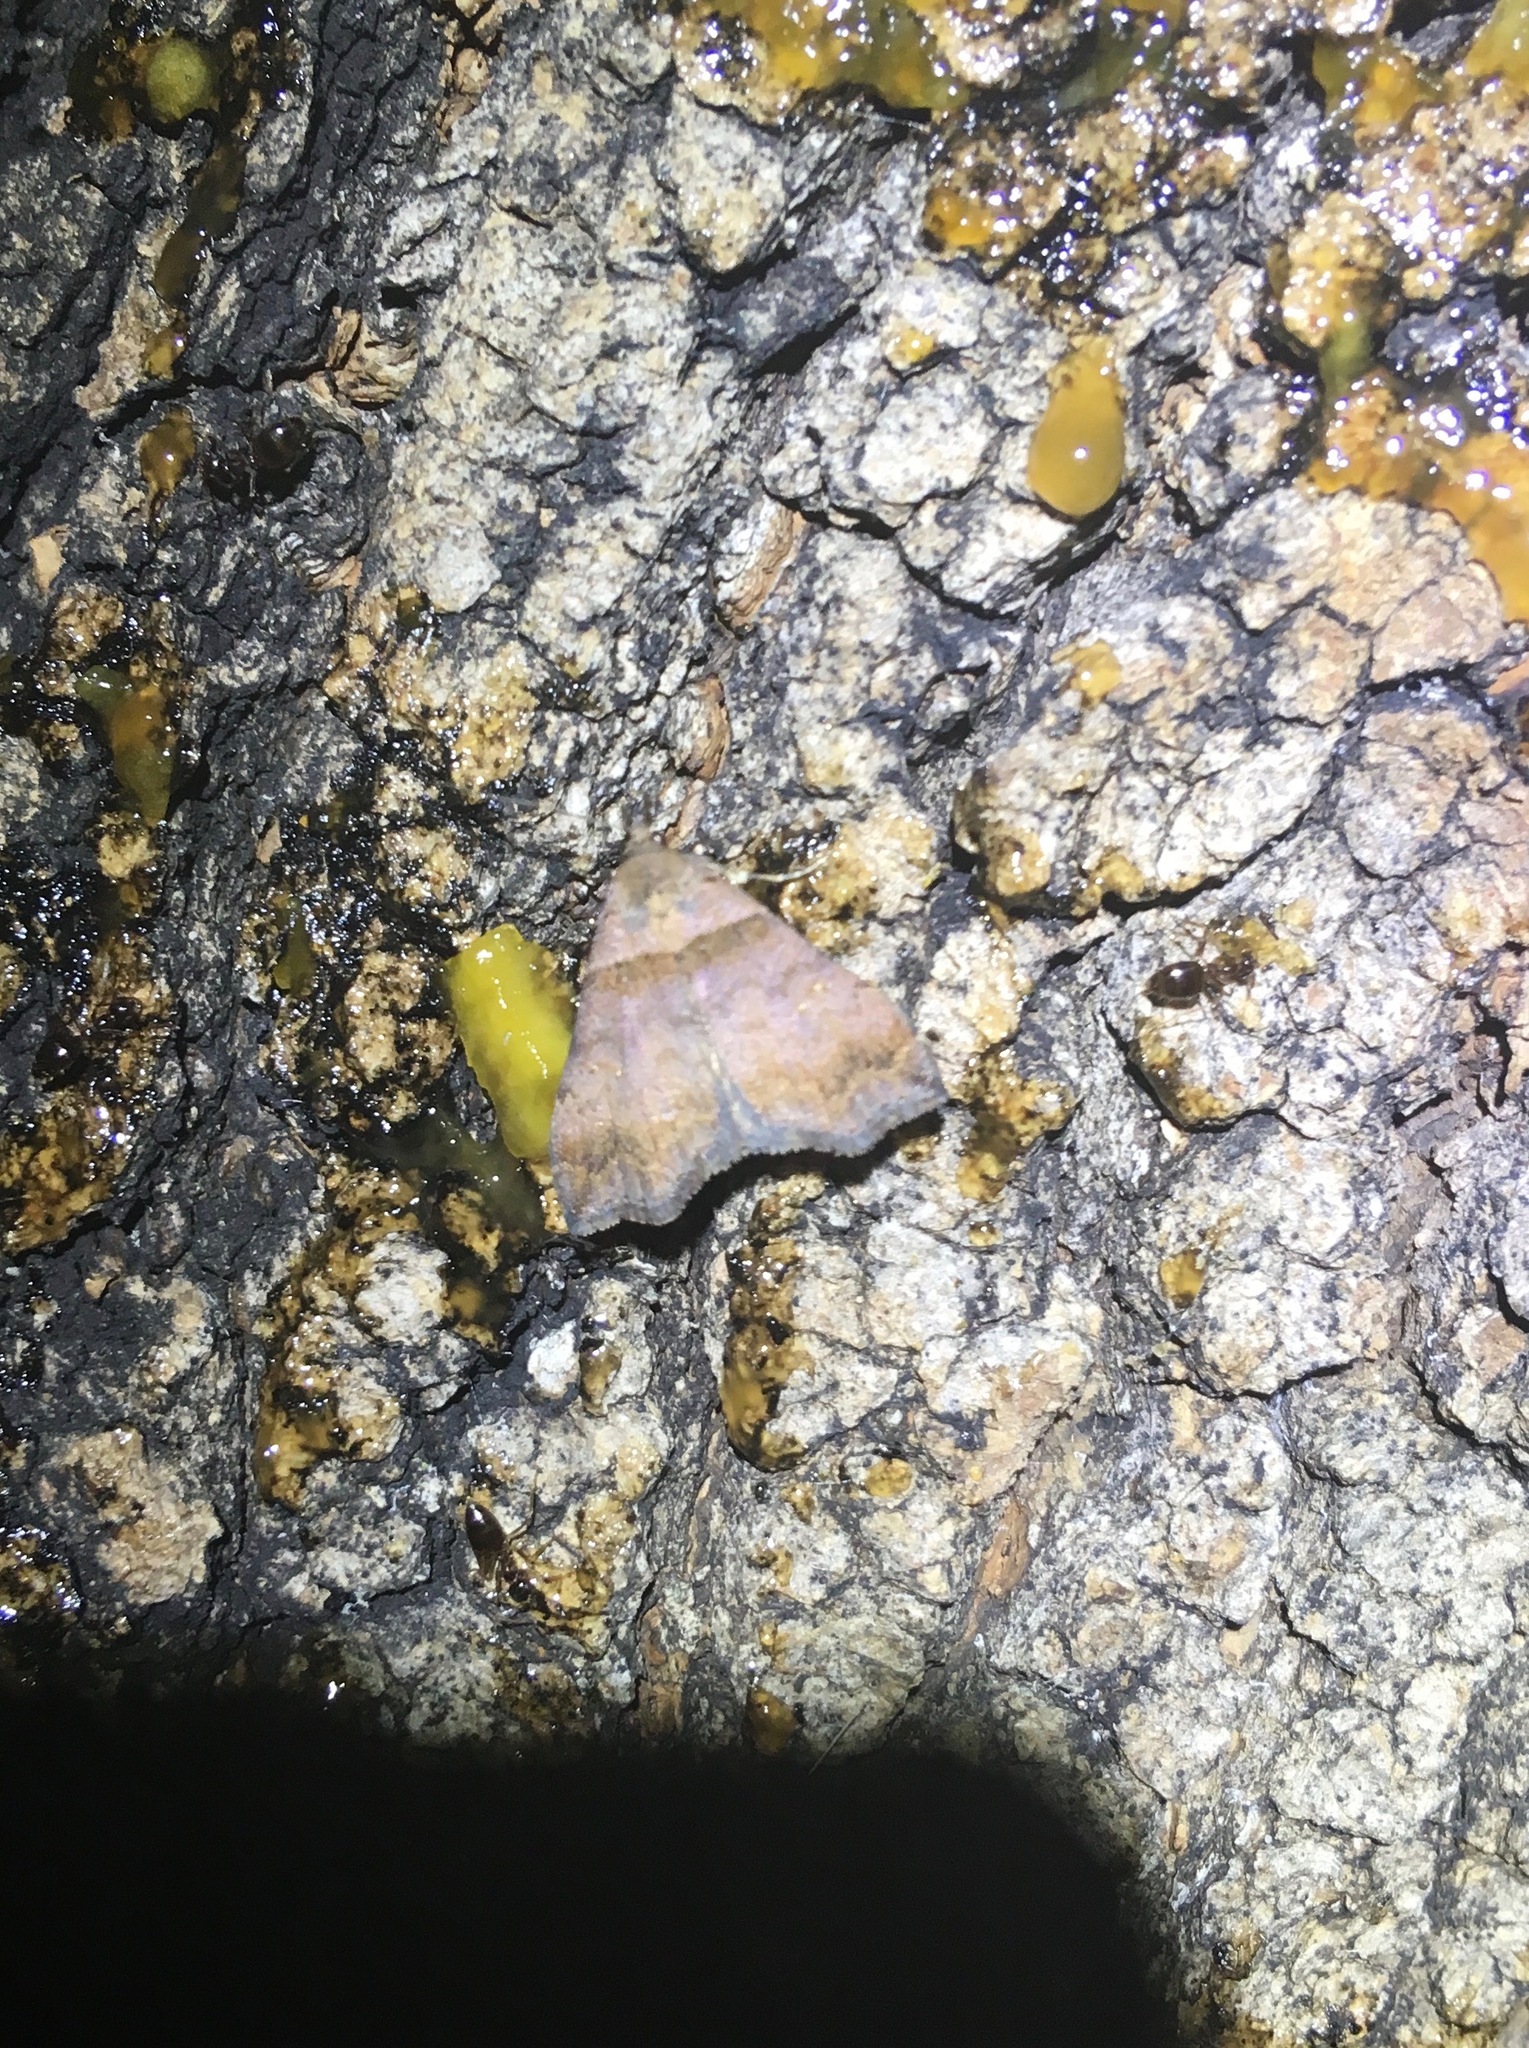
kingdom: Animalia
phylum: Arthropoda
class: Insecta
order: Lepidoptera
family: Erebidae
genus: Lascoria
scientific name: Lascoria ambigualis
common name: Ambiguous moth
